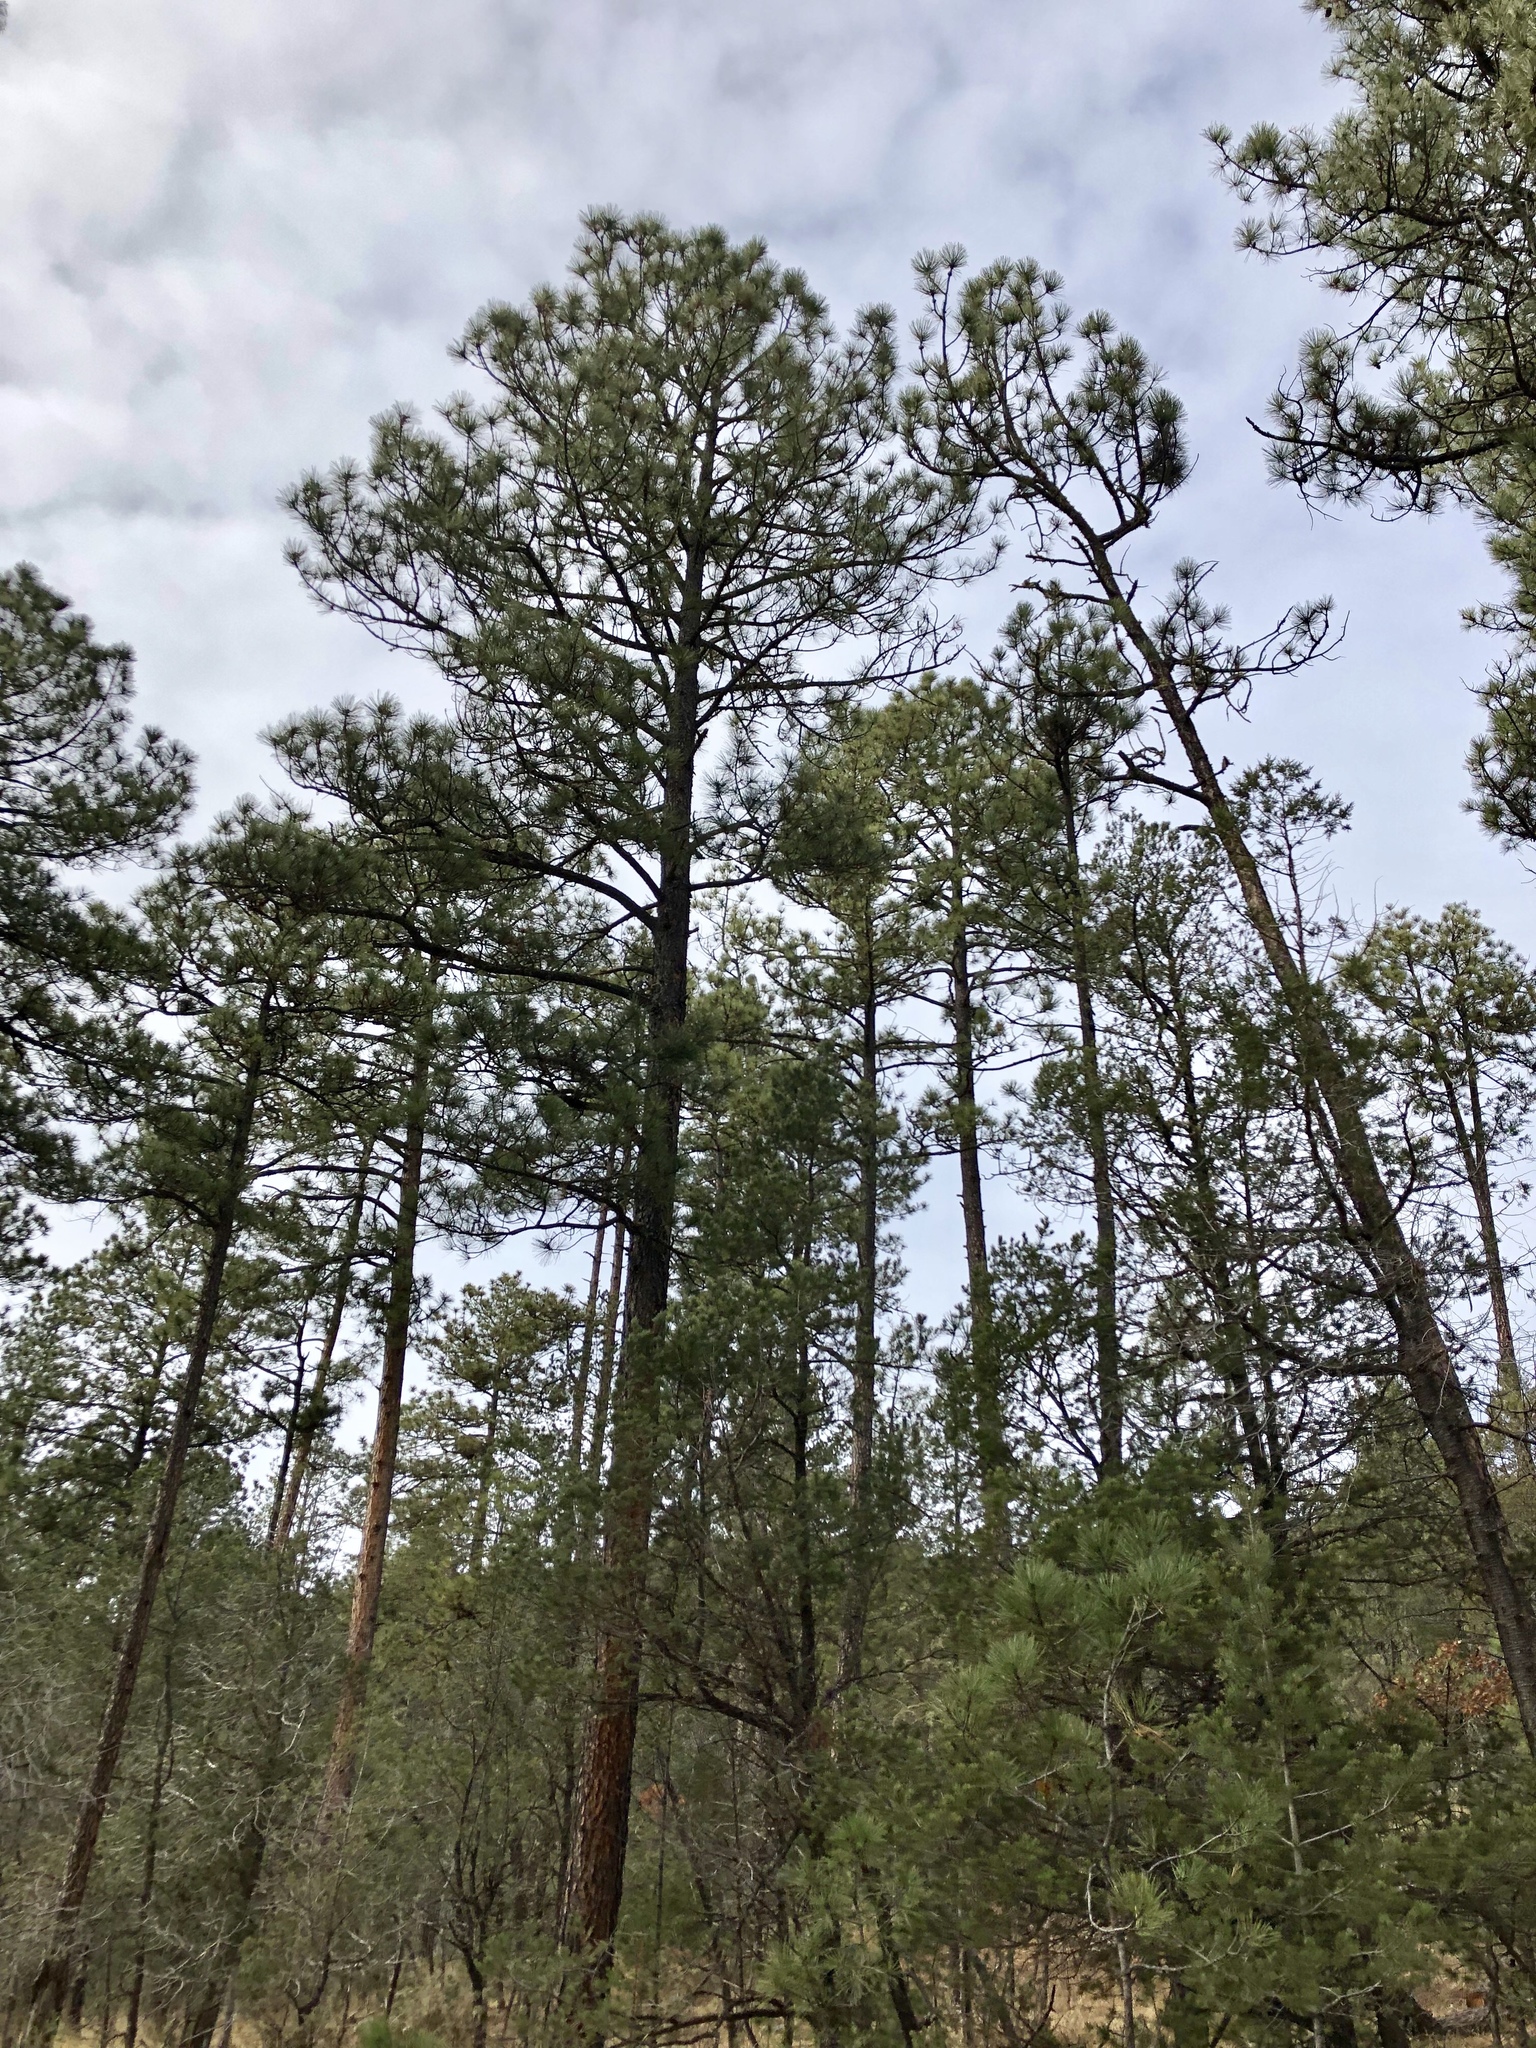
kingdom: Plantae
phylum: Tracheophyta
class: Pinopsida
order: Pinales
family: Pinaceae
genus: Pinus
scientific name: Pinus ponderosa
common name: Western yellow-pine
